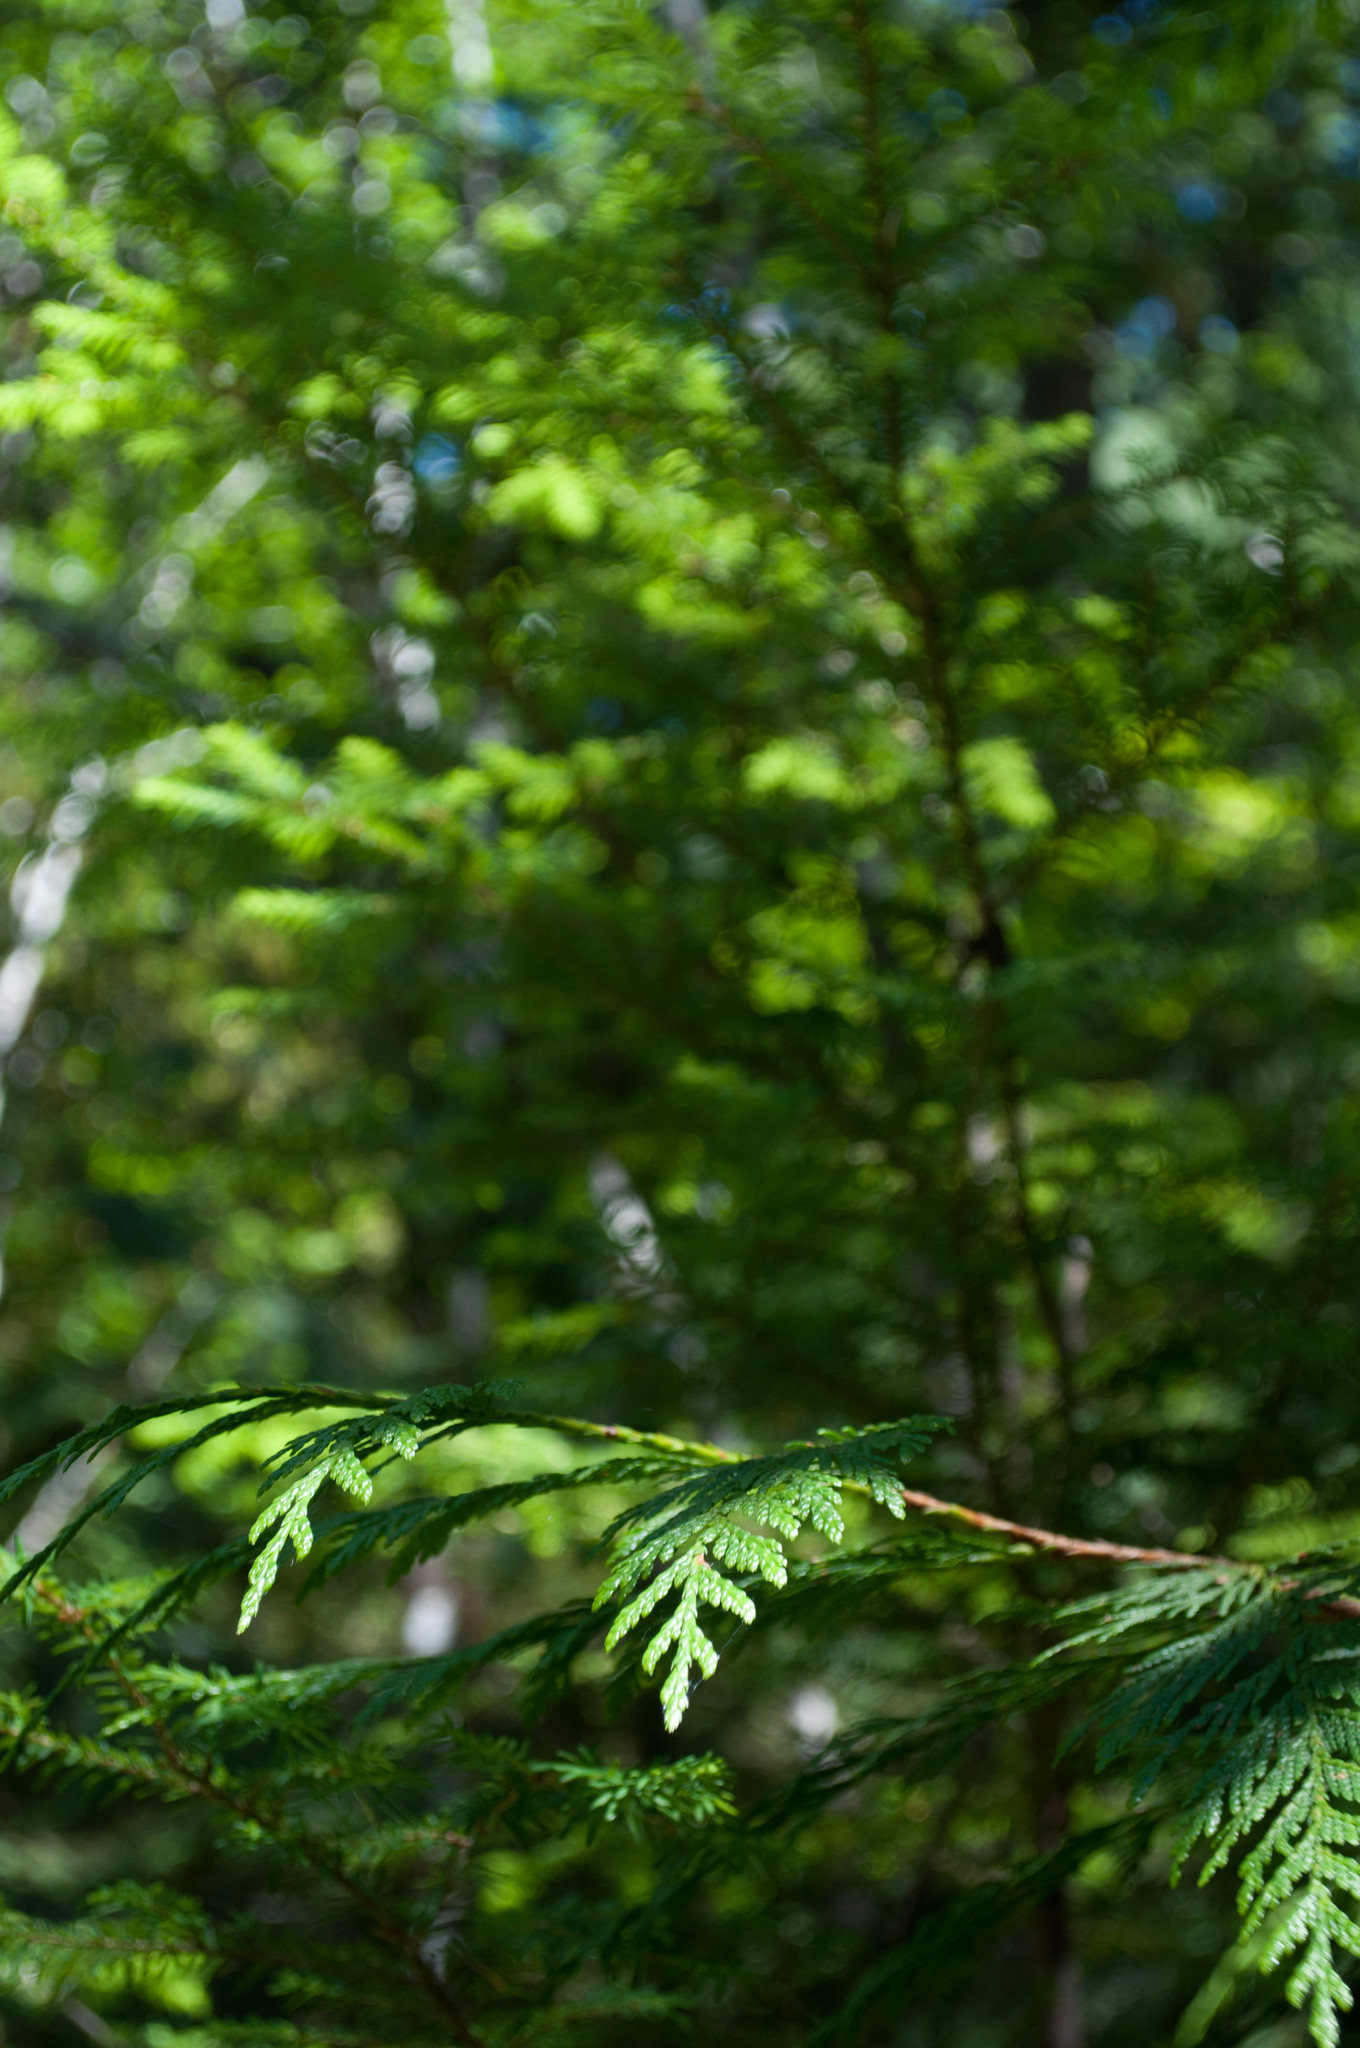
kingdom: Plantae
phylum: Tracheophyta
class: Pinopsida
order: Pinales
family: Cupressaceae
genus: Thuja
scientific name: Thuja plicata
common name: Western red-cedar
